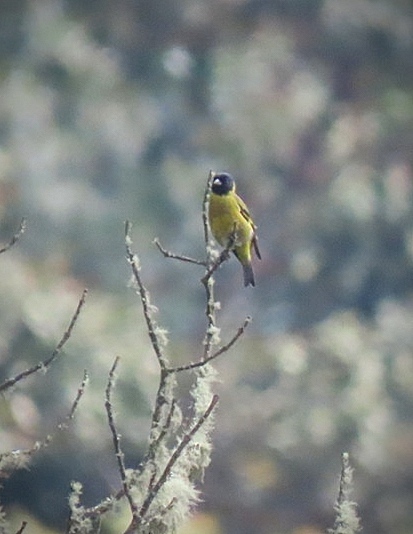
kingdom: Animalia
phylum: Chordata
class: Aves
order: Passeriformes
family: Fringillidae
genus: Spinus
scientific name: Spinus magellanicus
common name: Hooded siskin
